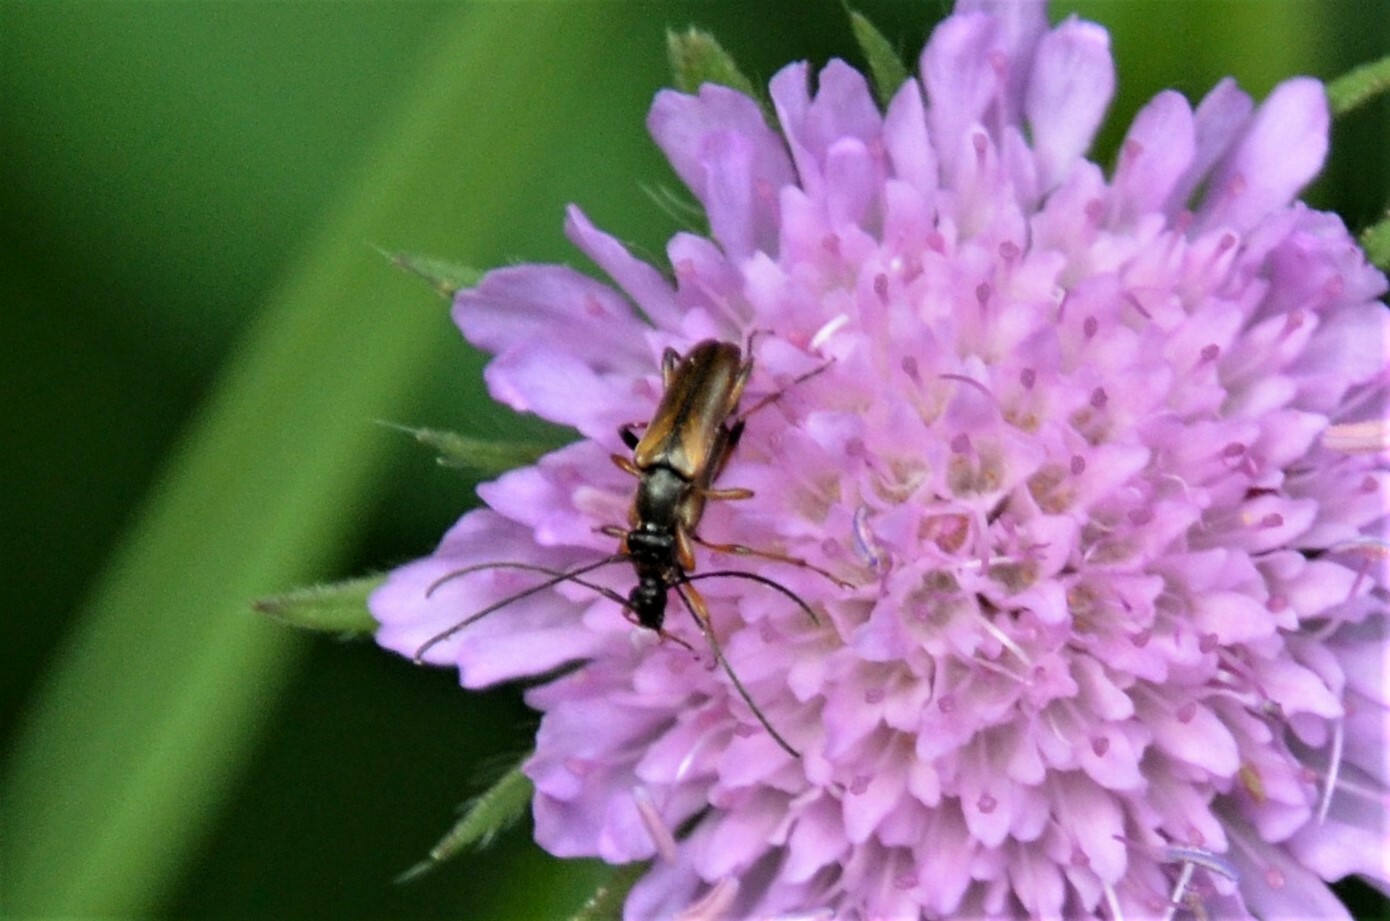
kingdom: Animalia
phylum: Arthropoda
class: Insecta
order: Coleoptera
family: Cerambycidae
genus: Alosterna
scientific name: Alosterna tabacicolor
